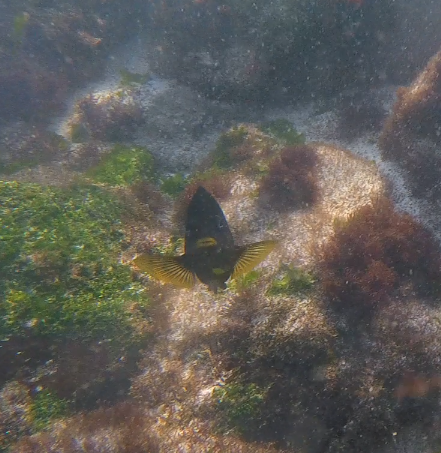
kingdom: Animalia
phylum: Chordata
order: Perciformes
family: Pomacentridae
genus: Stegastes
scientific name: Stegastes arcifrons
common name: Galapagos gregory
